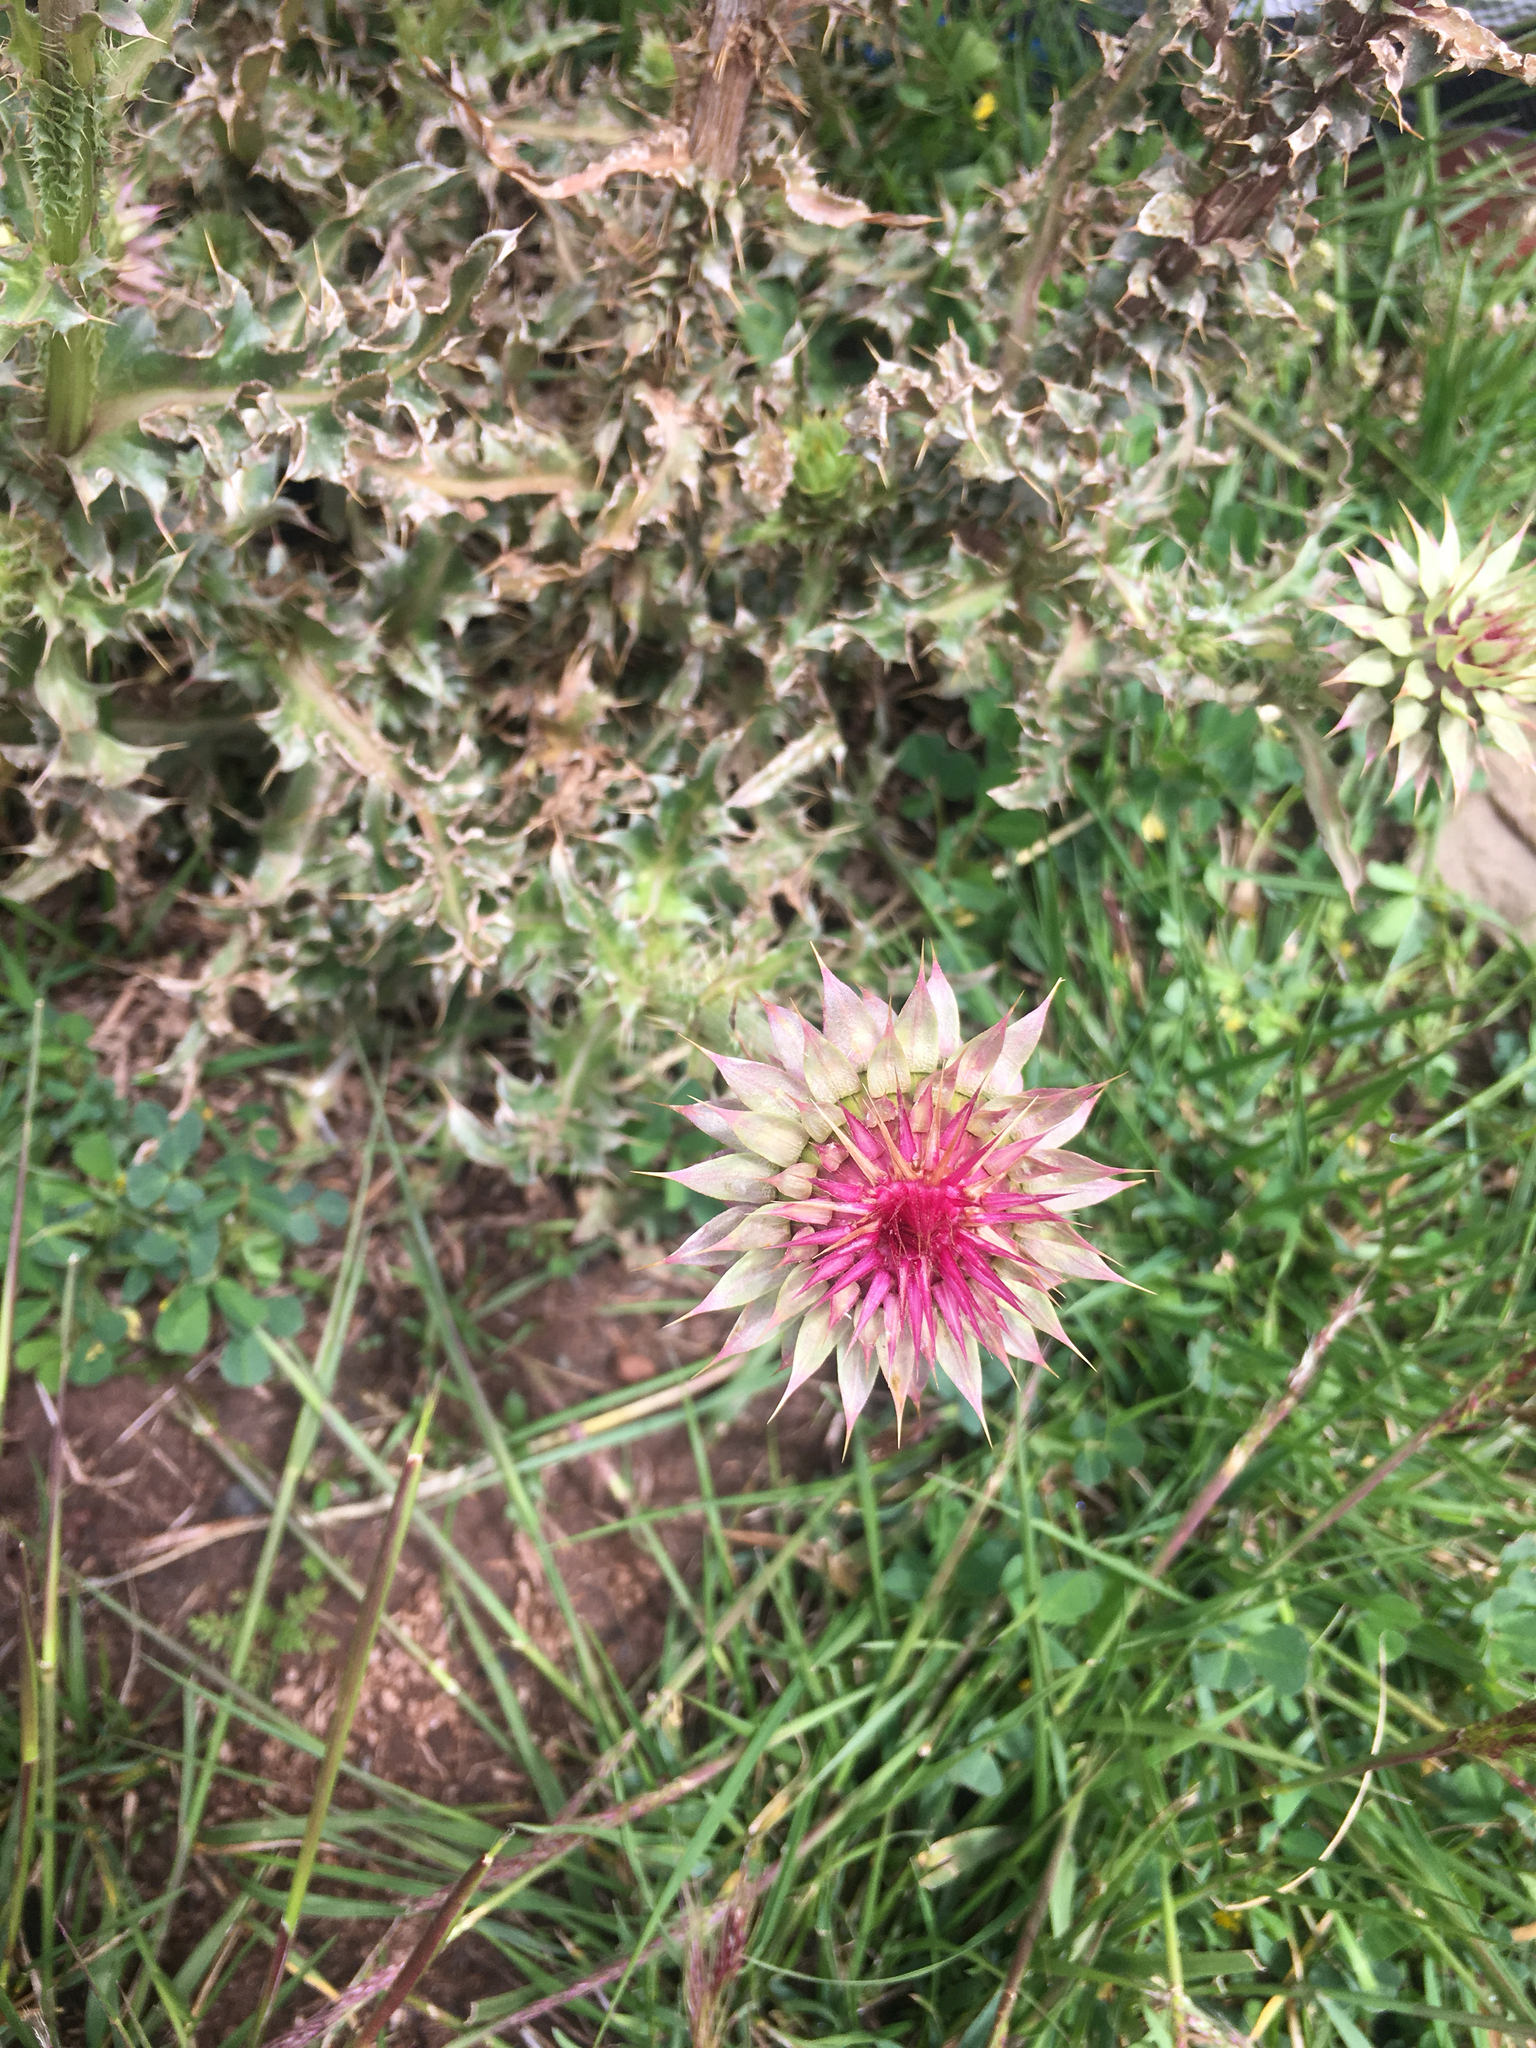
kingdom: Plantae
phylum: Tracheophyta
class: Magnoliopsida
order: Asterales
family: Asteraceae
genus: Carduus
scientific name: Carduus nutans
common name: Musk thistle
